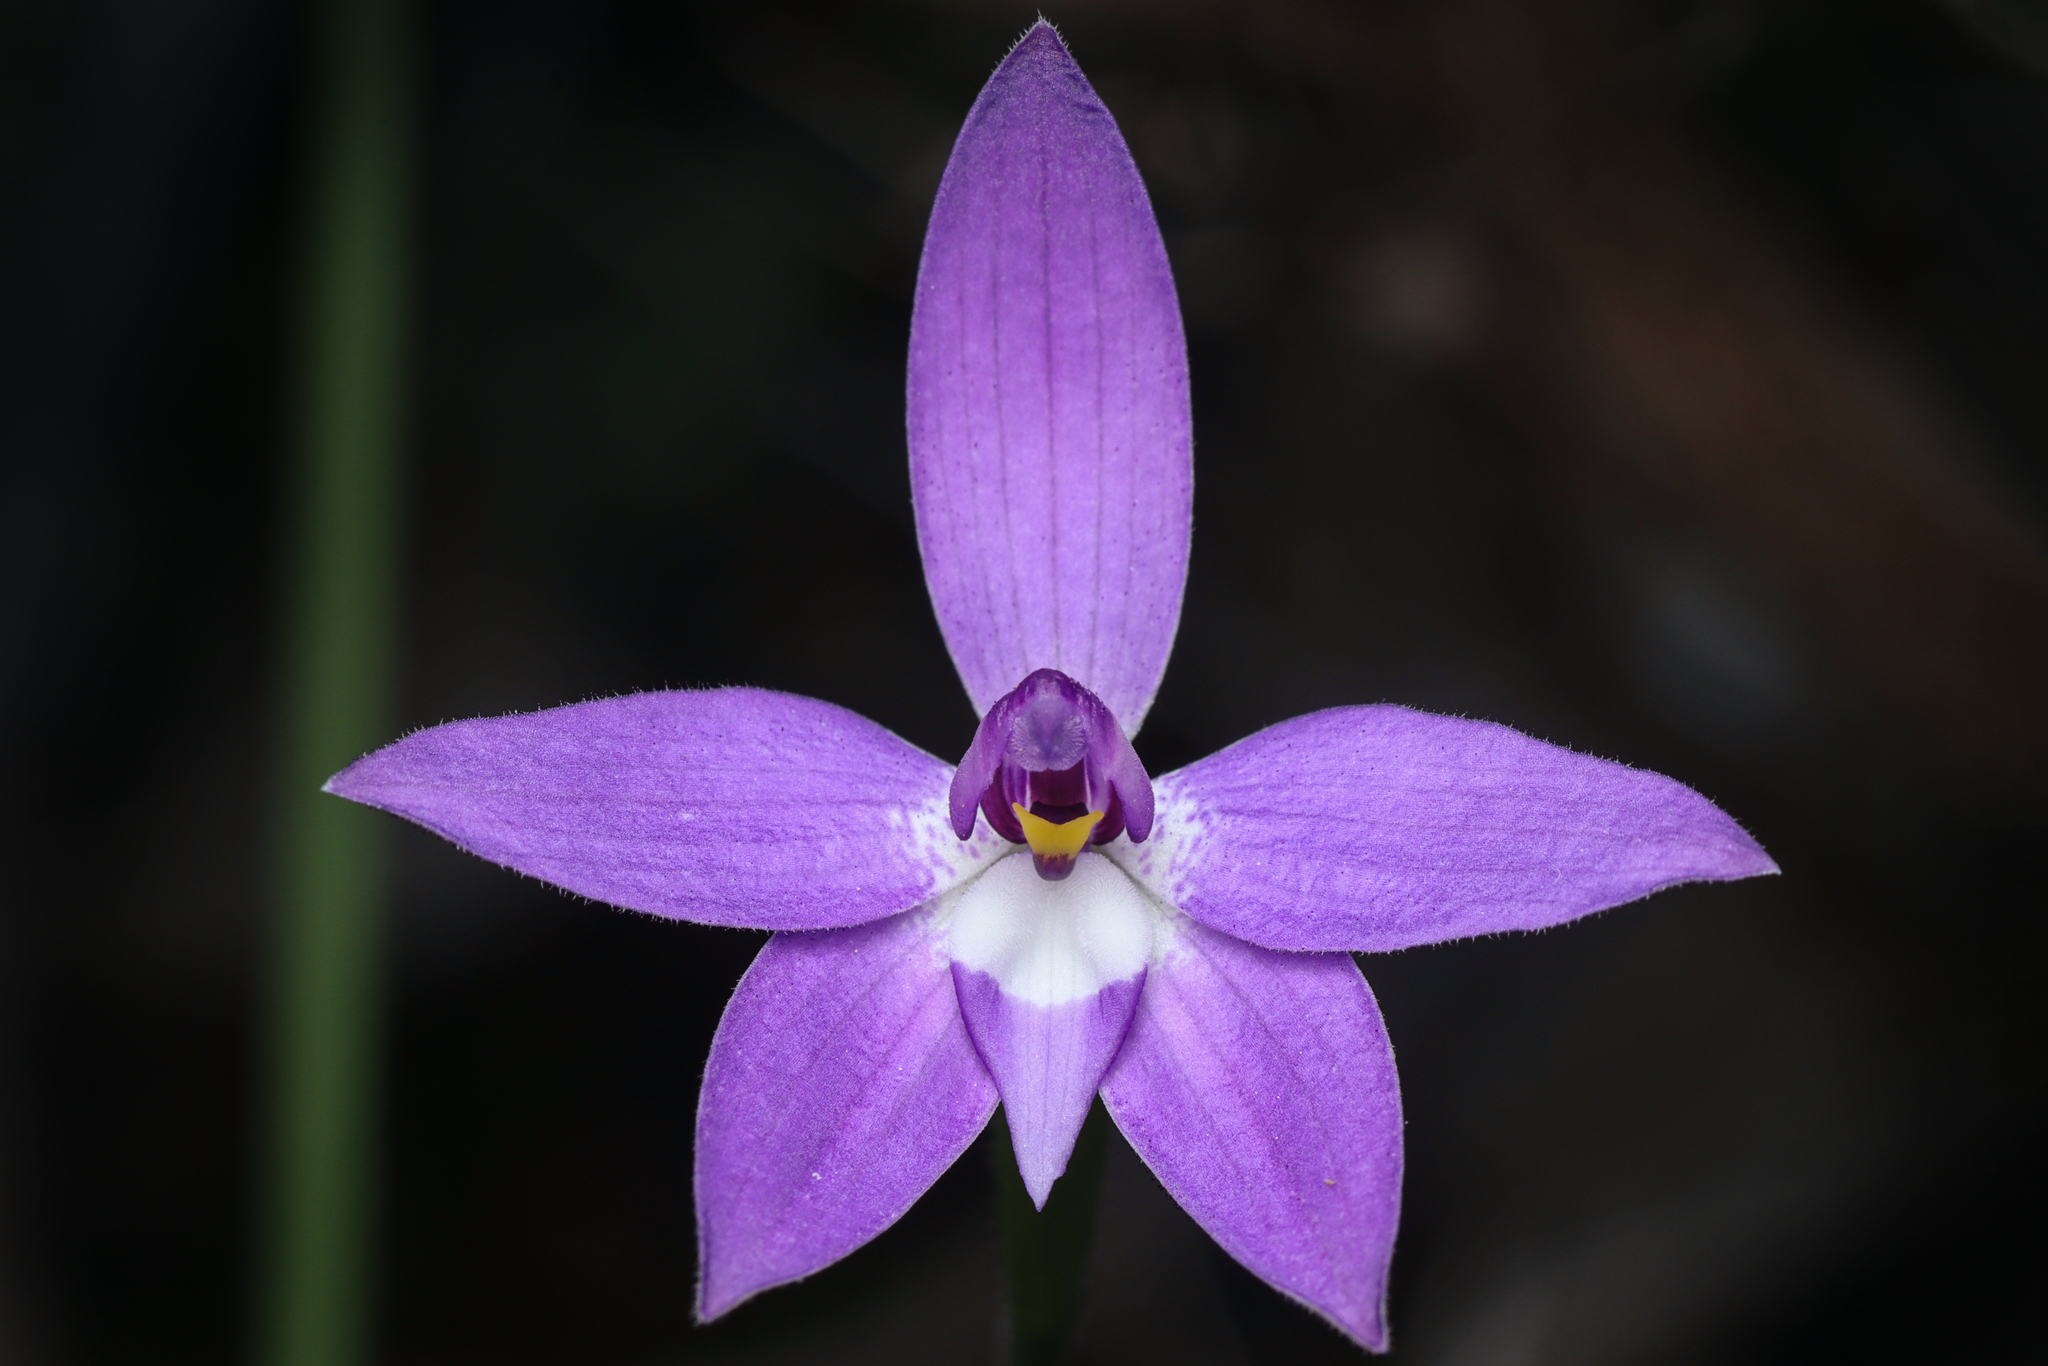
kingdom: Plantae
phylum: Tracheophyta
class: Liliopsida
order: Asparagales
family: Orchidaceae
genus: Caladenia
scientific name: Caladenia major
